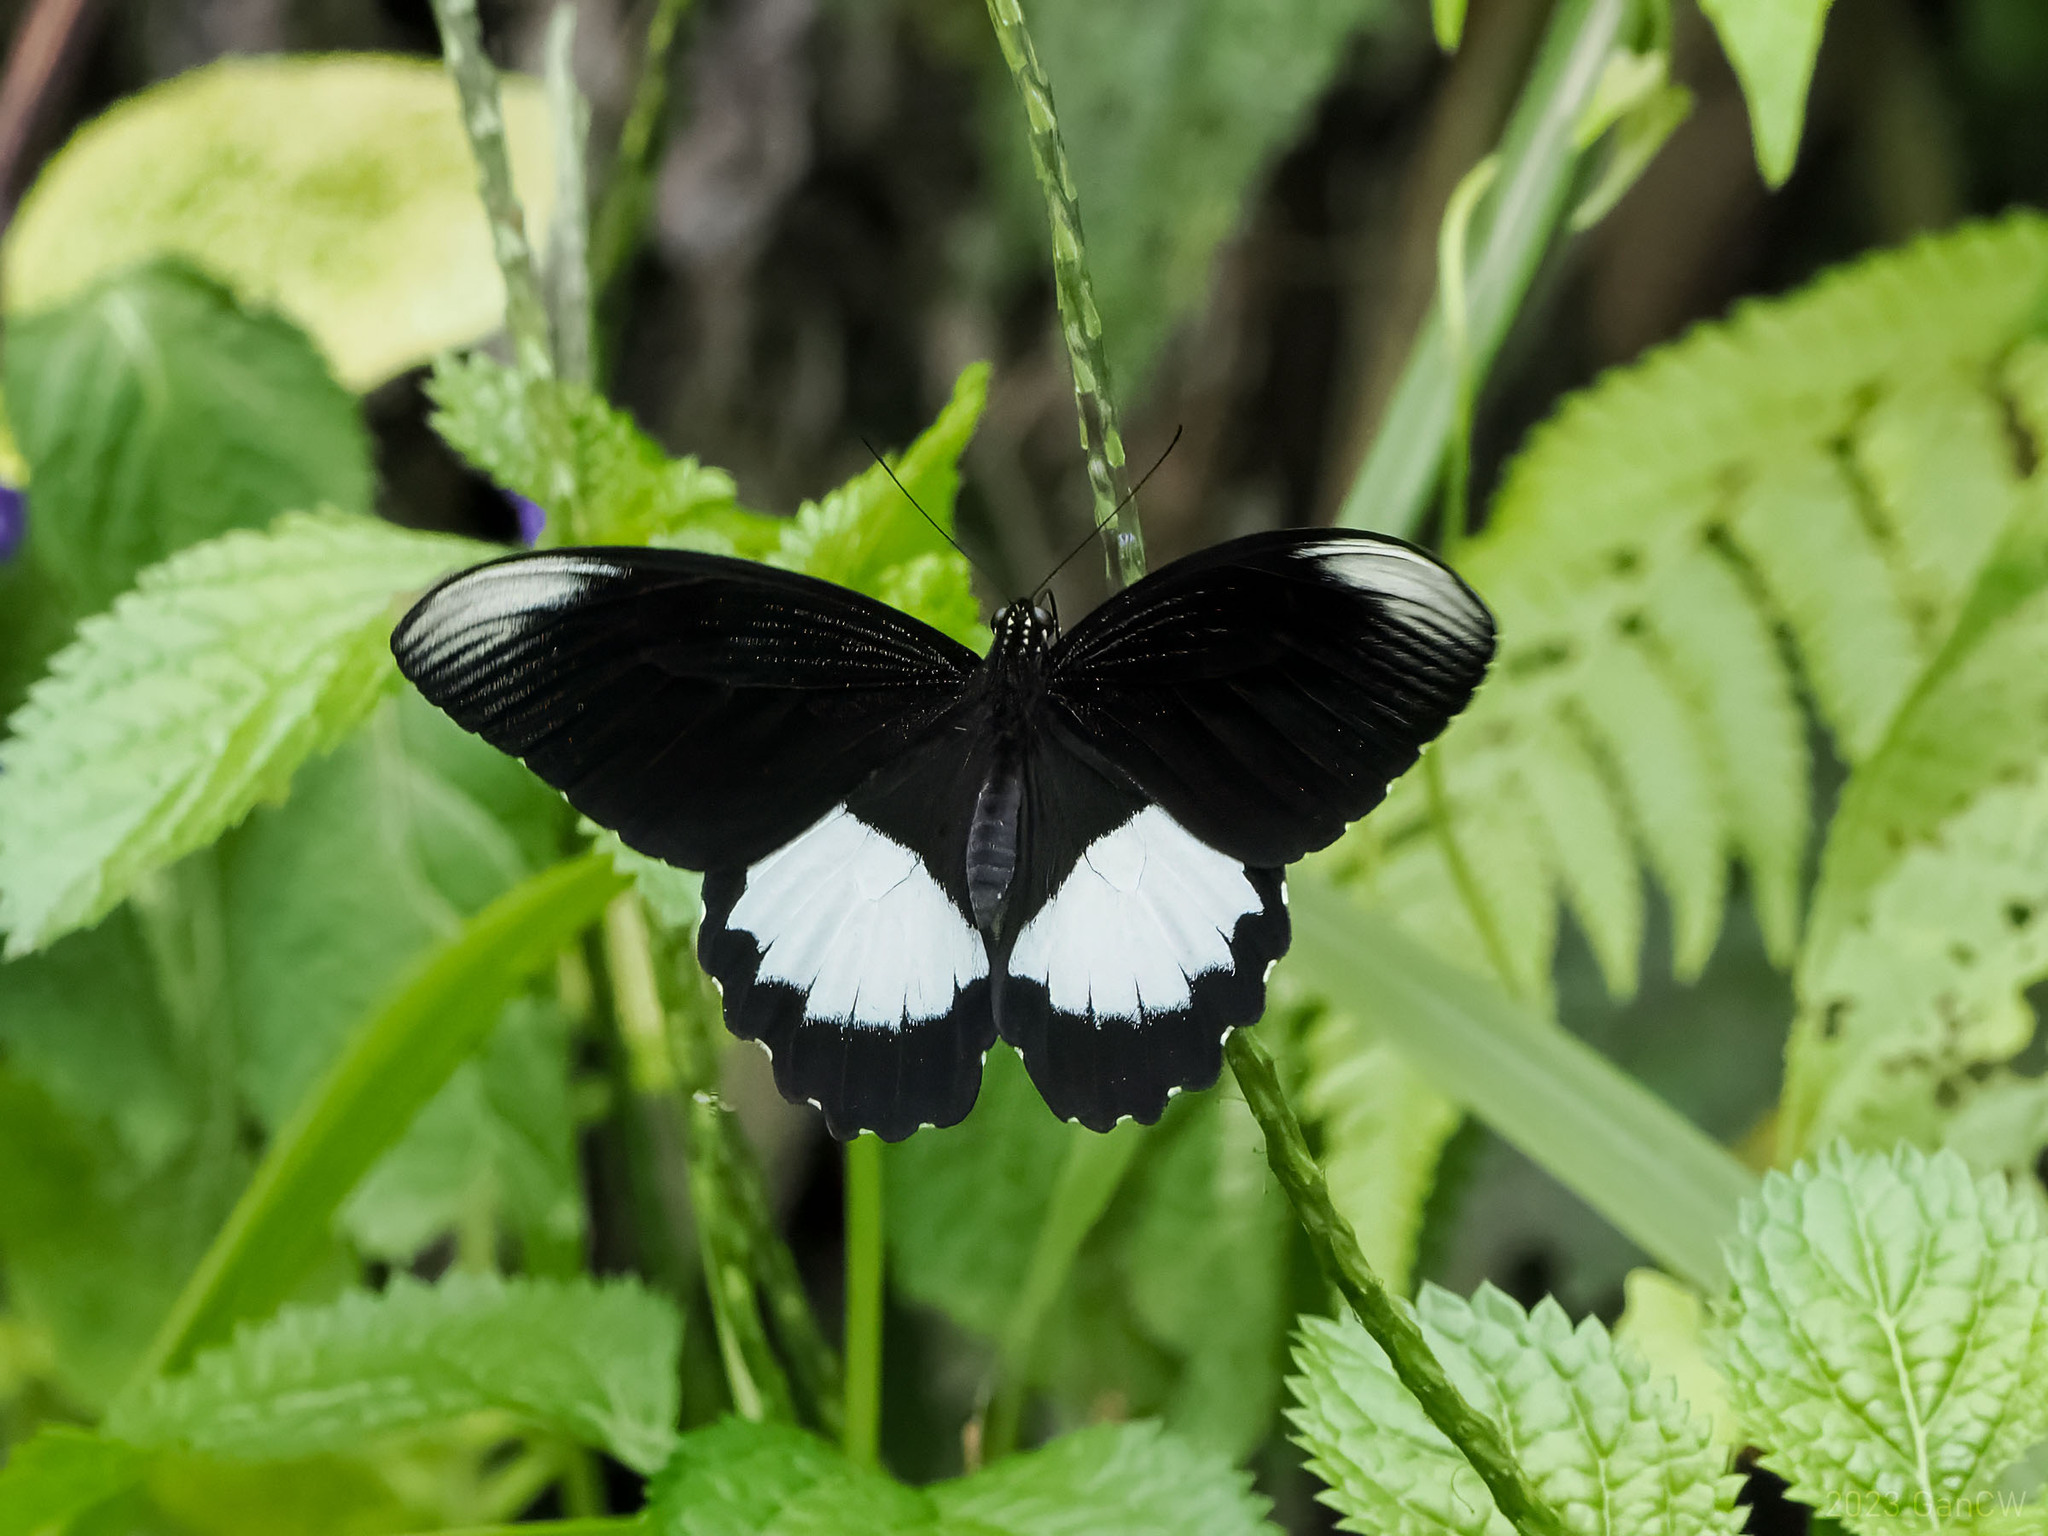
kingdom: Animalia
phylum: Arthropoda
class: Insecta
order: Lepidoptera
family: Papilionidae
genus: Papilio
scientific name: Papilio ambrax
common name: Ambrax butterfly
